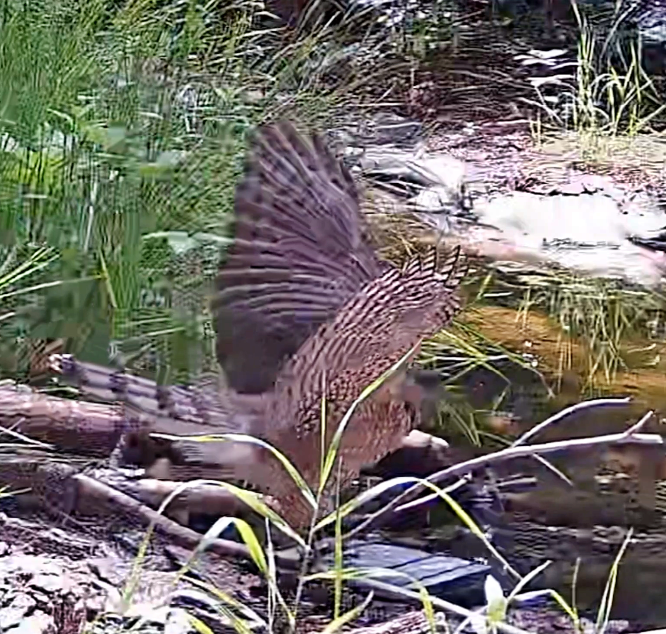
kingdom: Animalia
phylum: Chordata
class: Aves
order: Accipitriformes
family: Accipitridae
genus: Accipiter
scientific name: Accipiter cooperii
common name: Cooper's hawk
